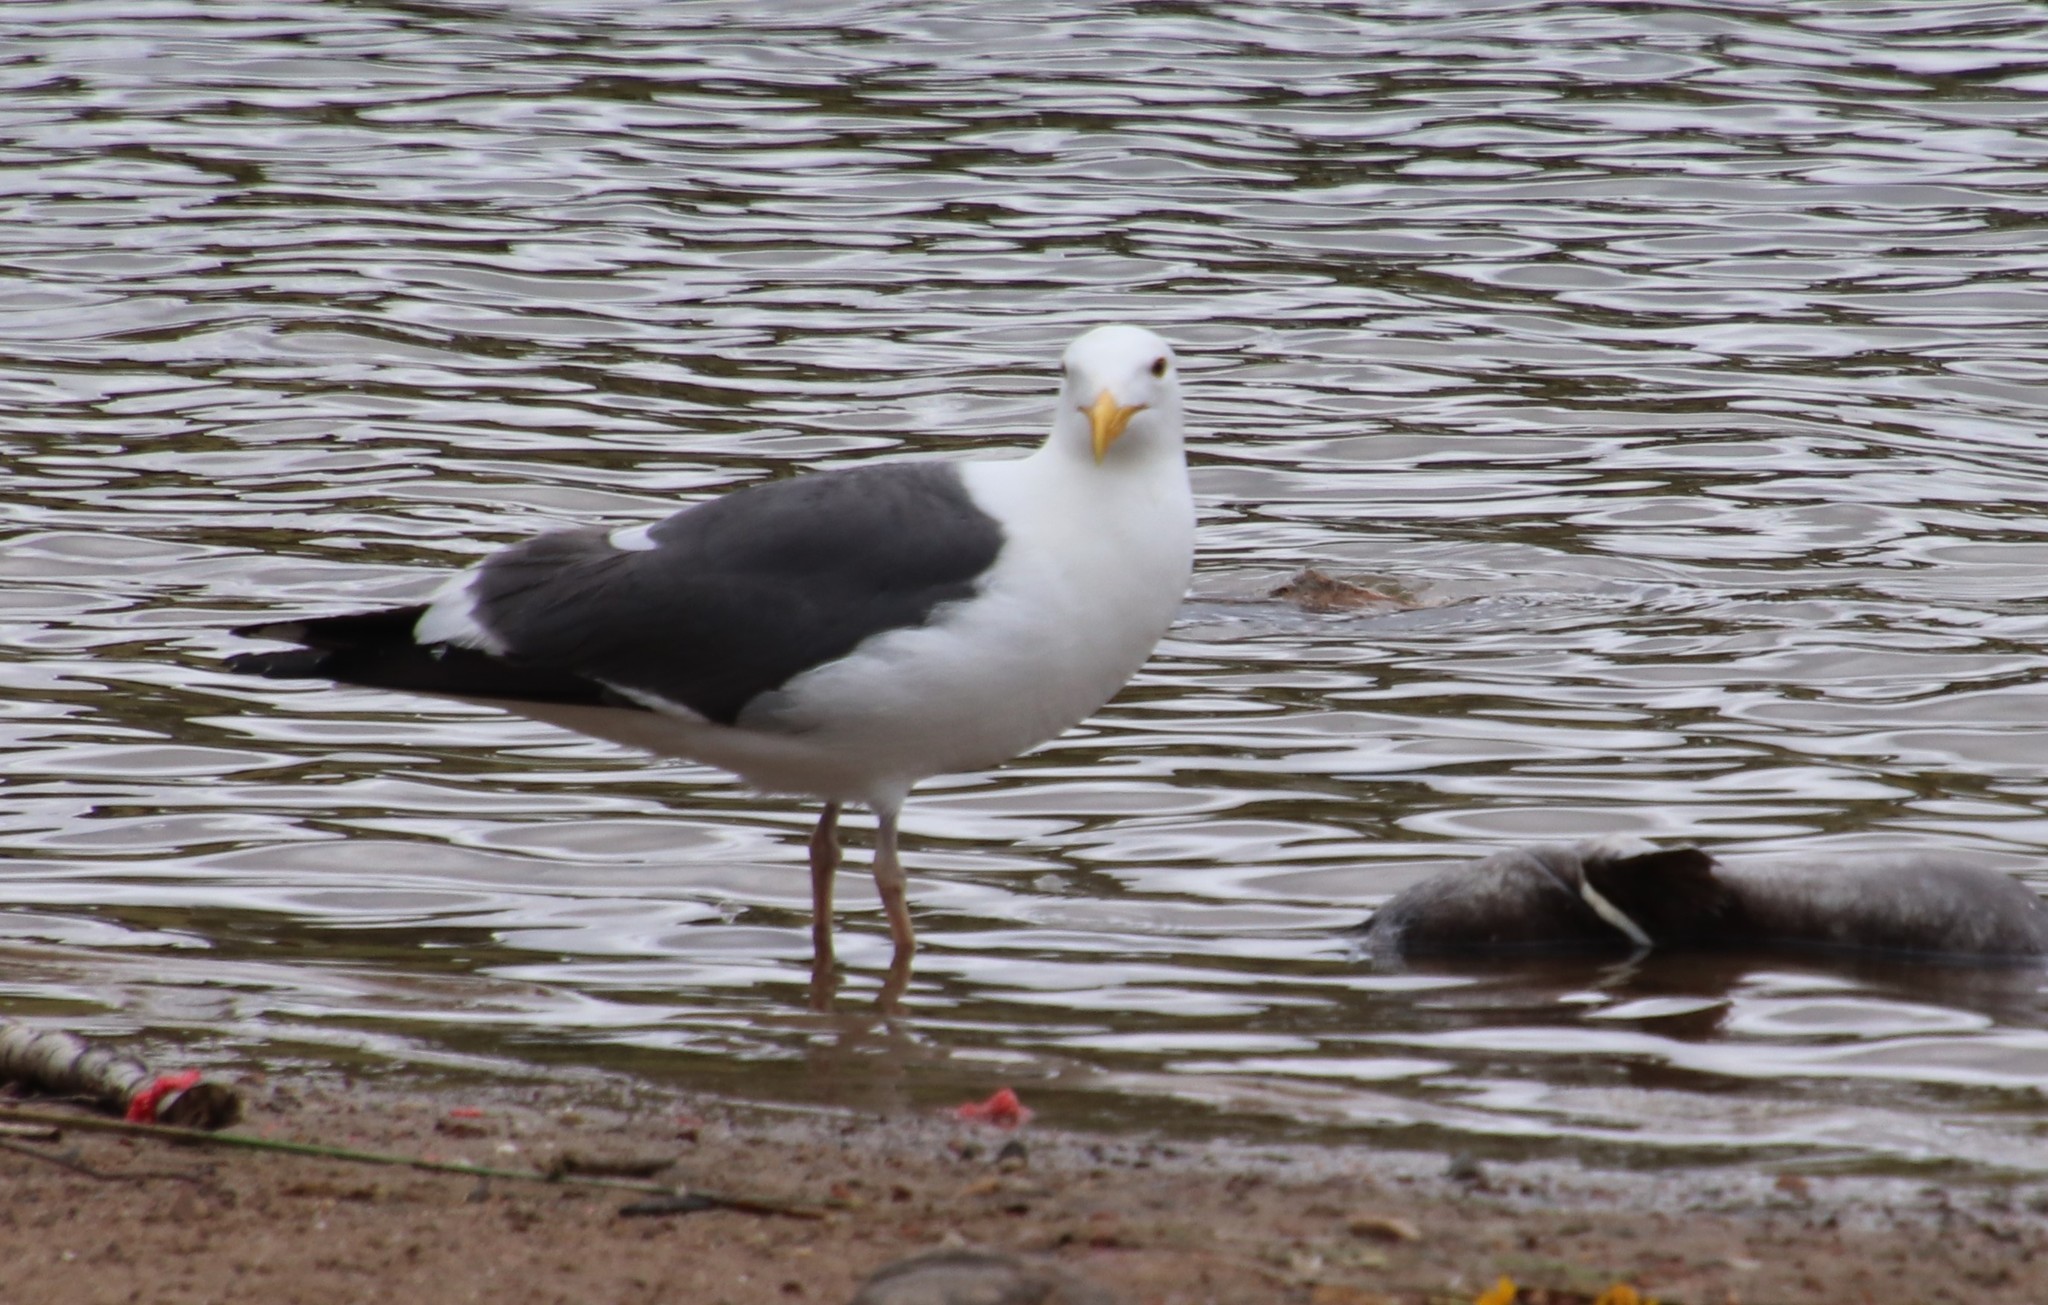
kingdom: Animalia
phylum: Chordata
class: Aves
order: Charadriiformes
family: Laridae
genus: Larus
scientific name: Larus occidentalis
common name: Western gull
